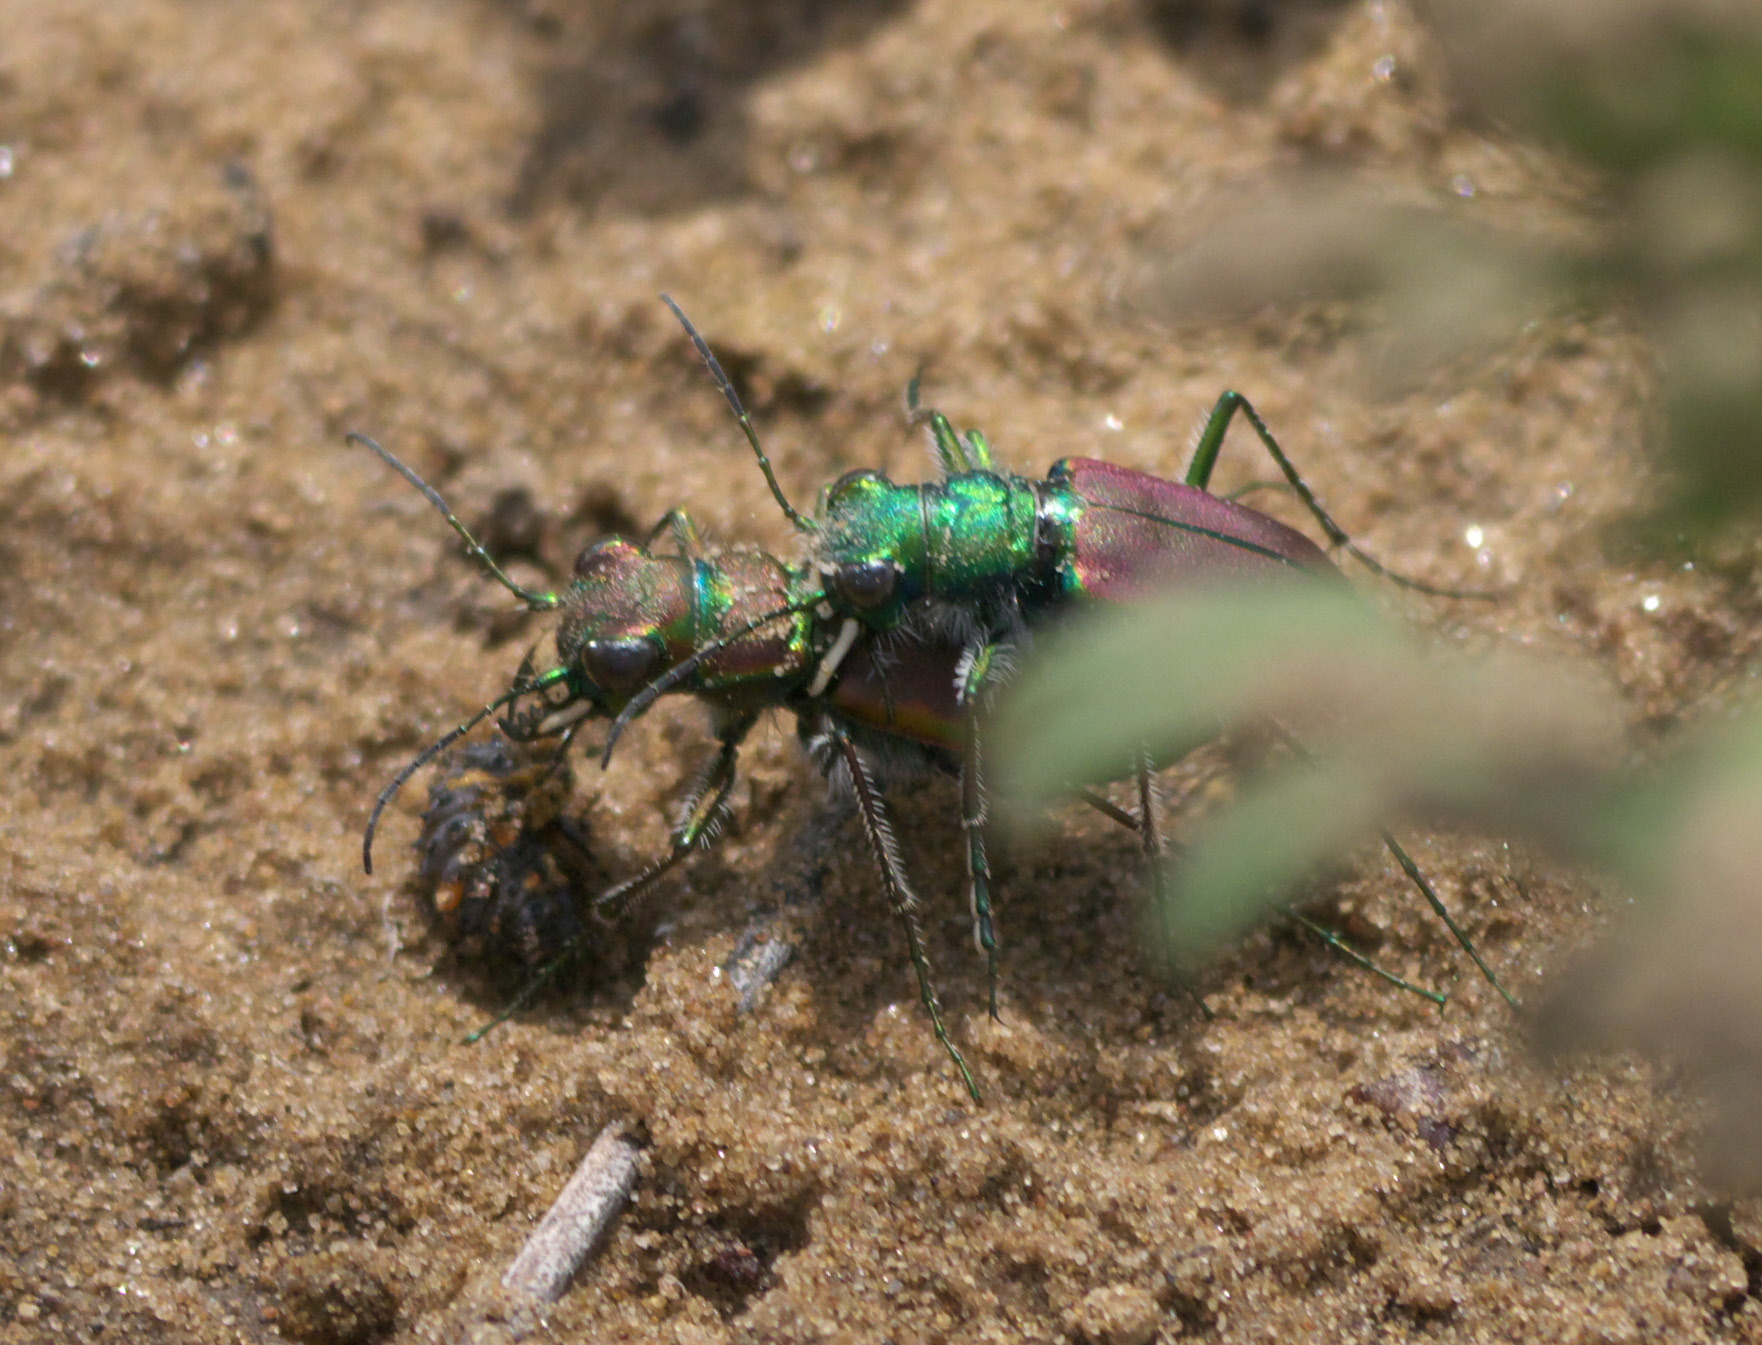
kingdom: Animalia
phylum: Arthropoda
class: Insecta
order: Coleoptera
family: Carabidae
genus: Cicindela
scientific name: Cicindela splendida
